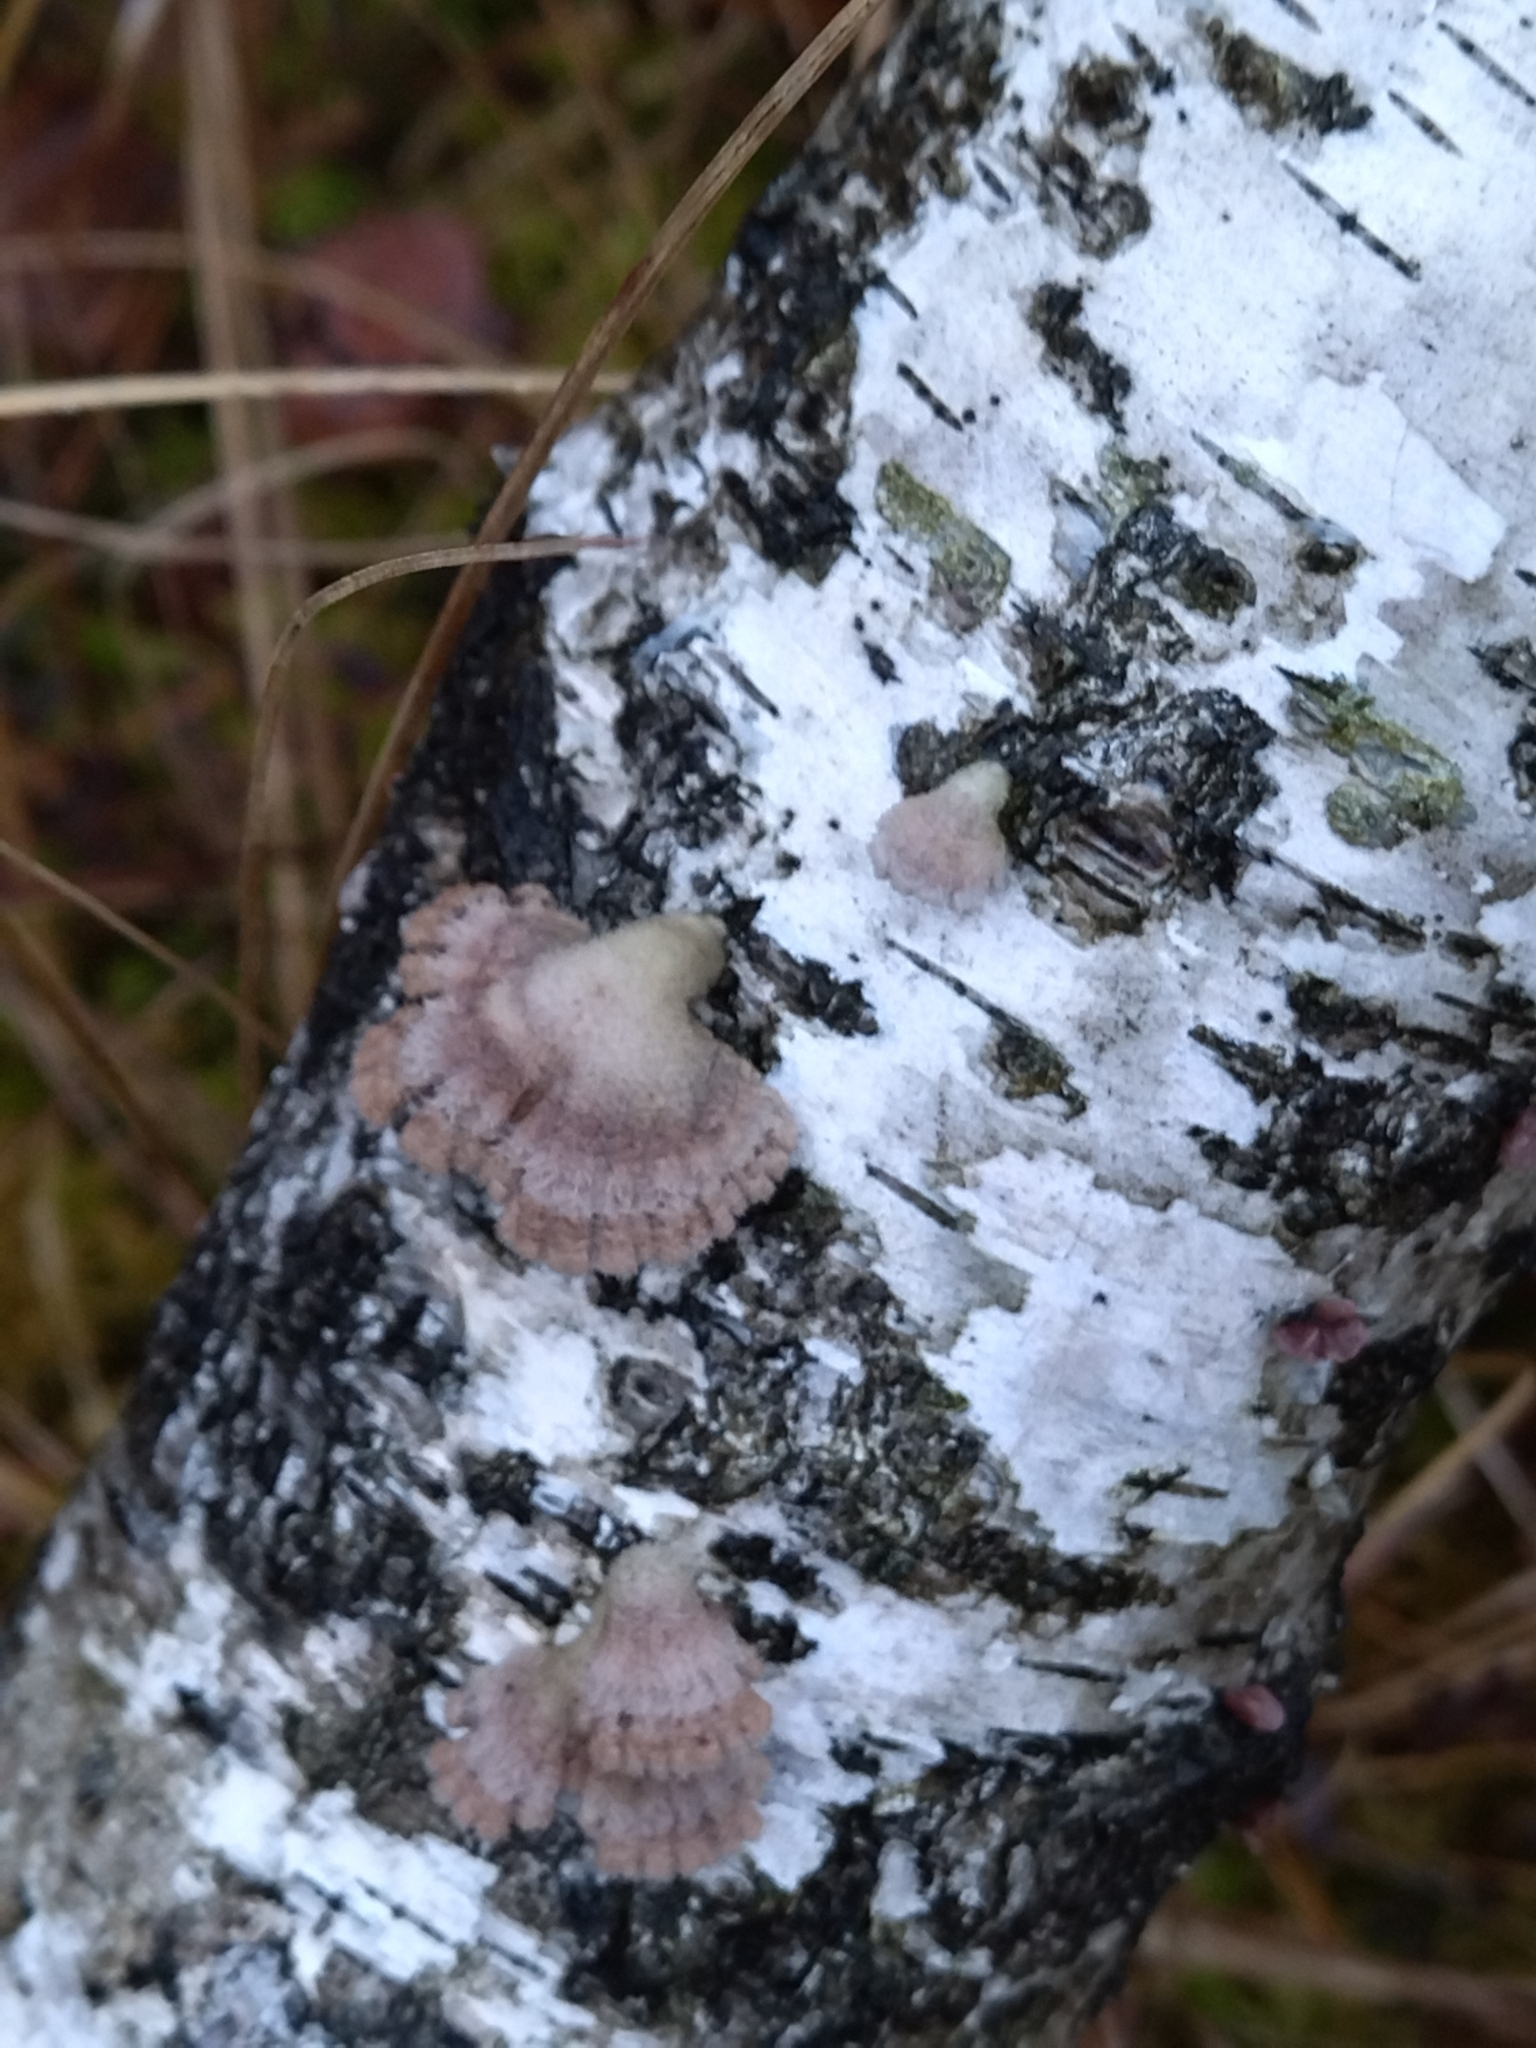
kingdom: Fungi
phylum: Basidiomycota
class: Agaricomycetes
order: Agaricales
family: Schizophyllaceae
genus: Schizophyllum
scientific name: Schizophyllum commune
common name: Common porecrust
